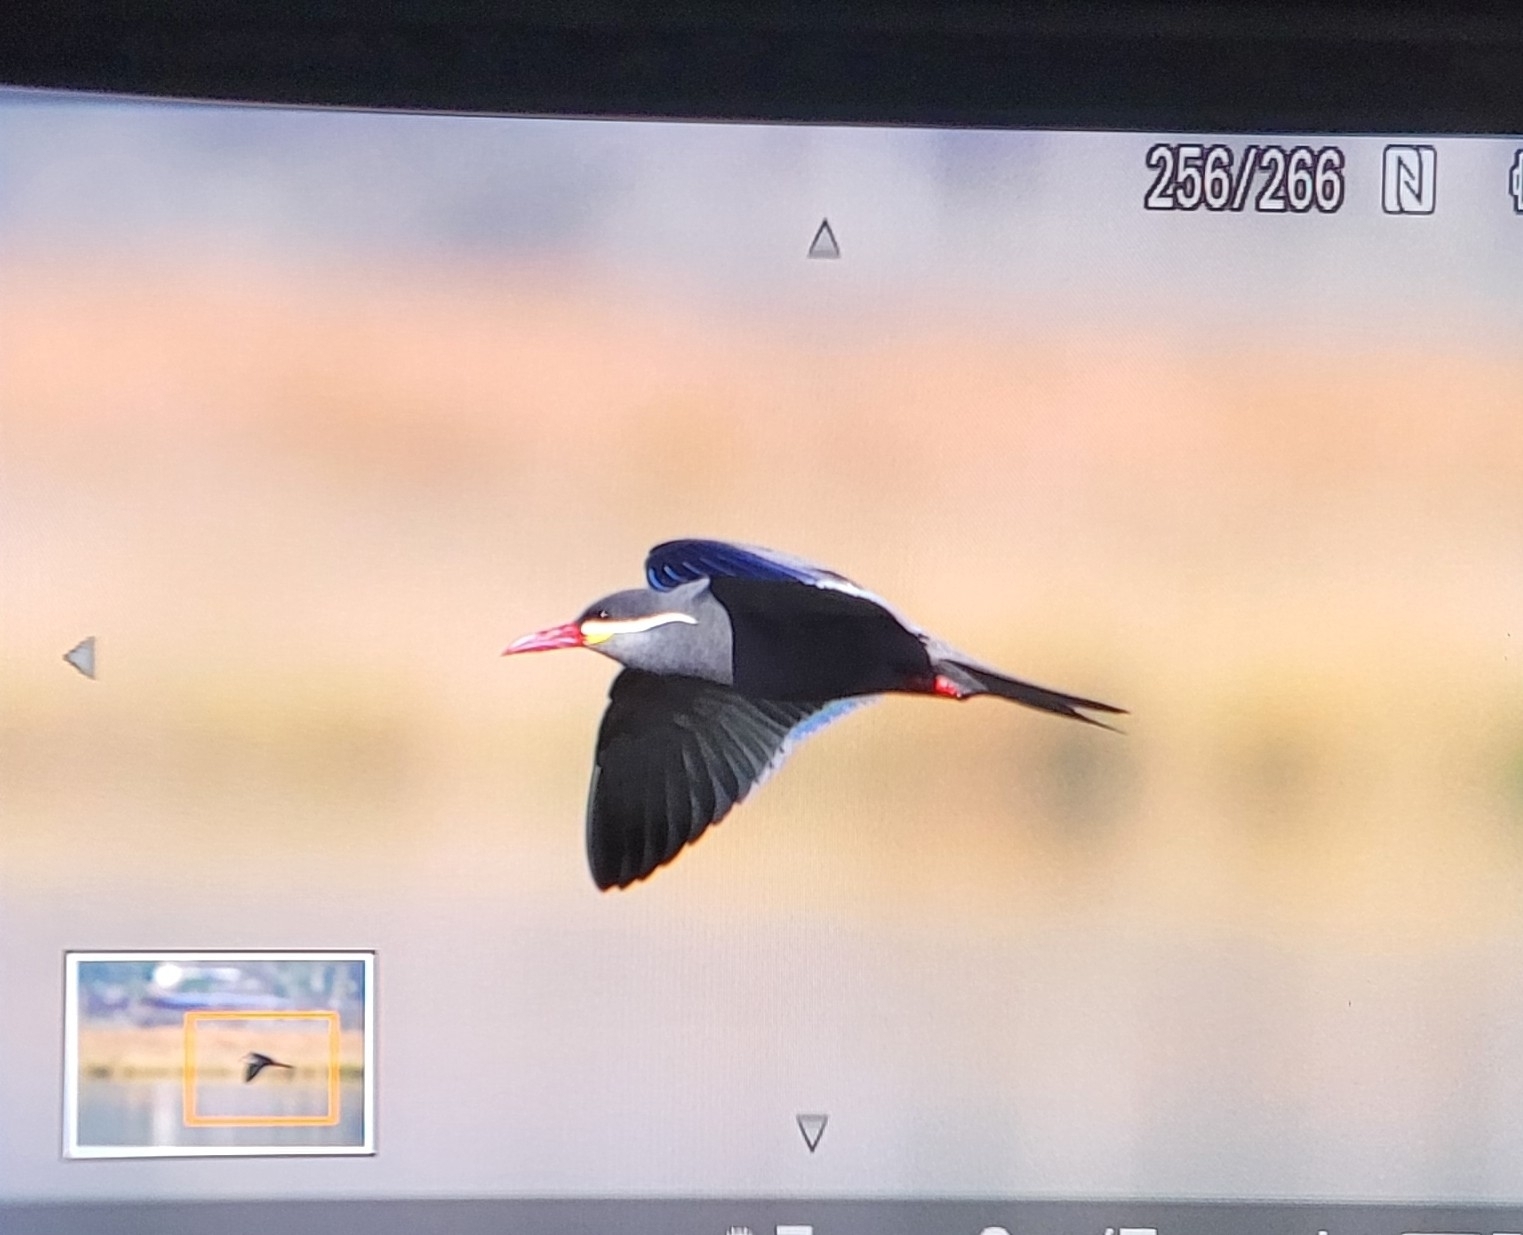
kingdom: Animalia
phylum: Chordata
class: Aves
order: Charadriiformes
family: Laridae
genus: Larosterna
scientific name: Larosterna inca
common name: Inca tern
